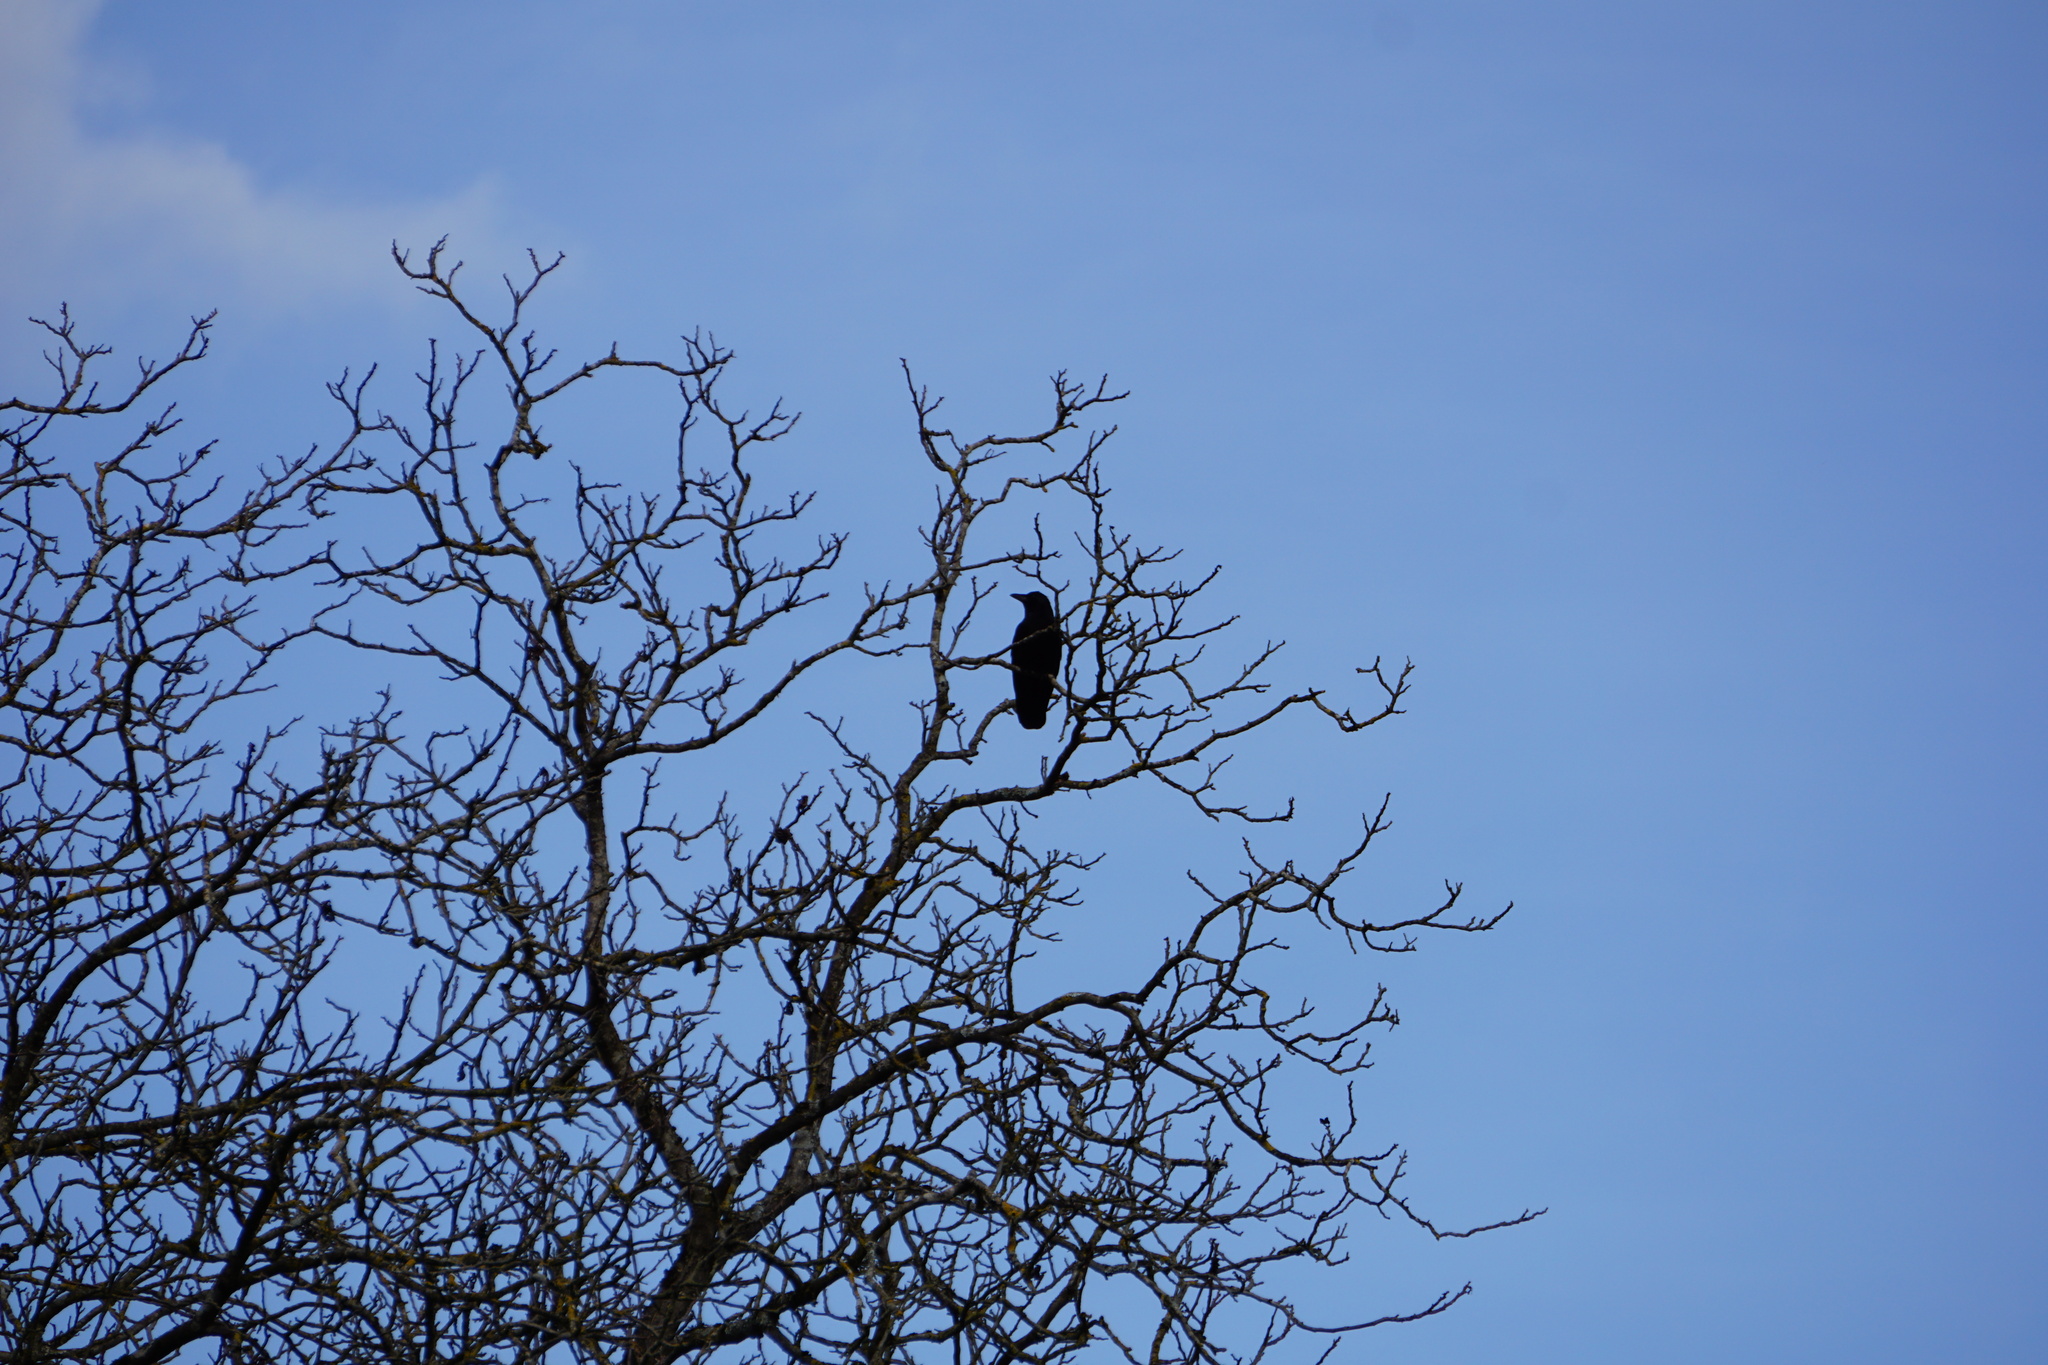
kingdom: Animalia
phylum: Chordata
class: Aves
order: Passeriformes
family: Corvidae
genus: Corvus
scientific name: Corvus corone
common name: Carrion crow
